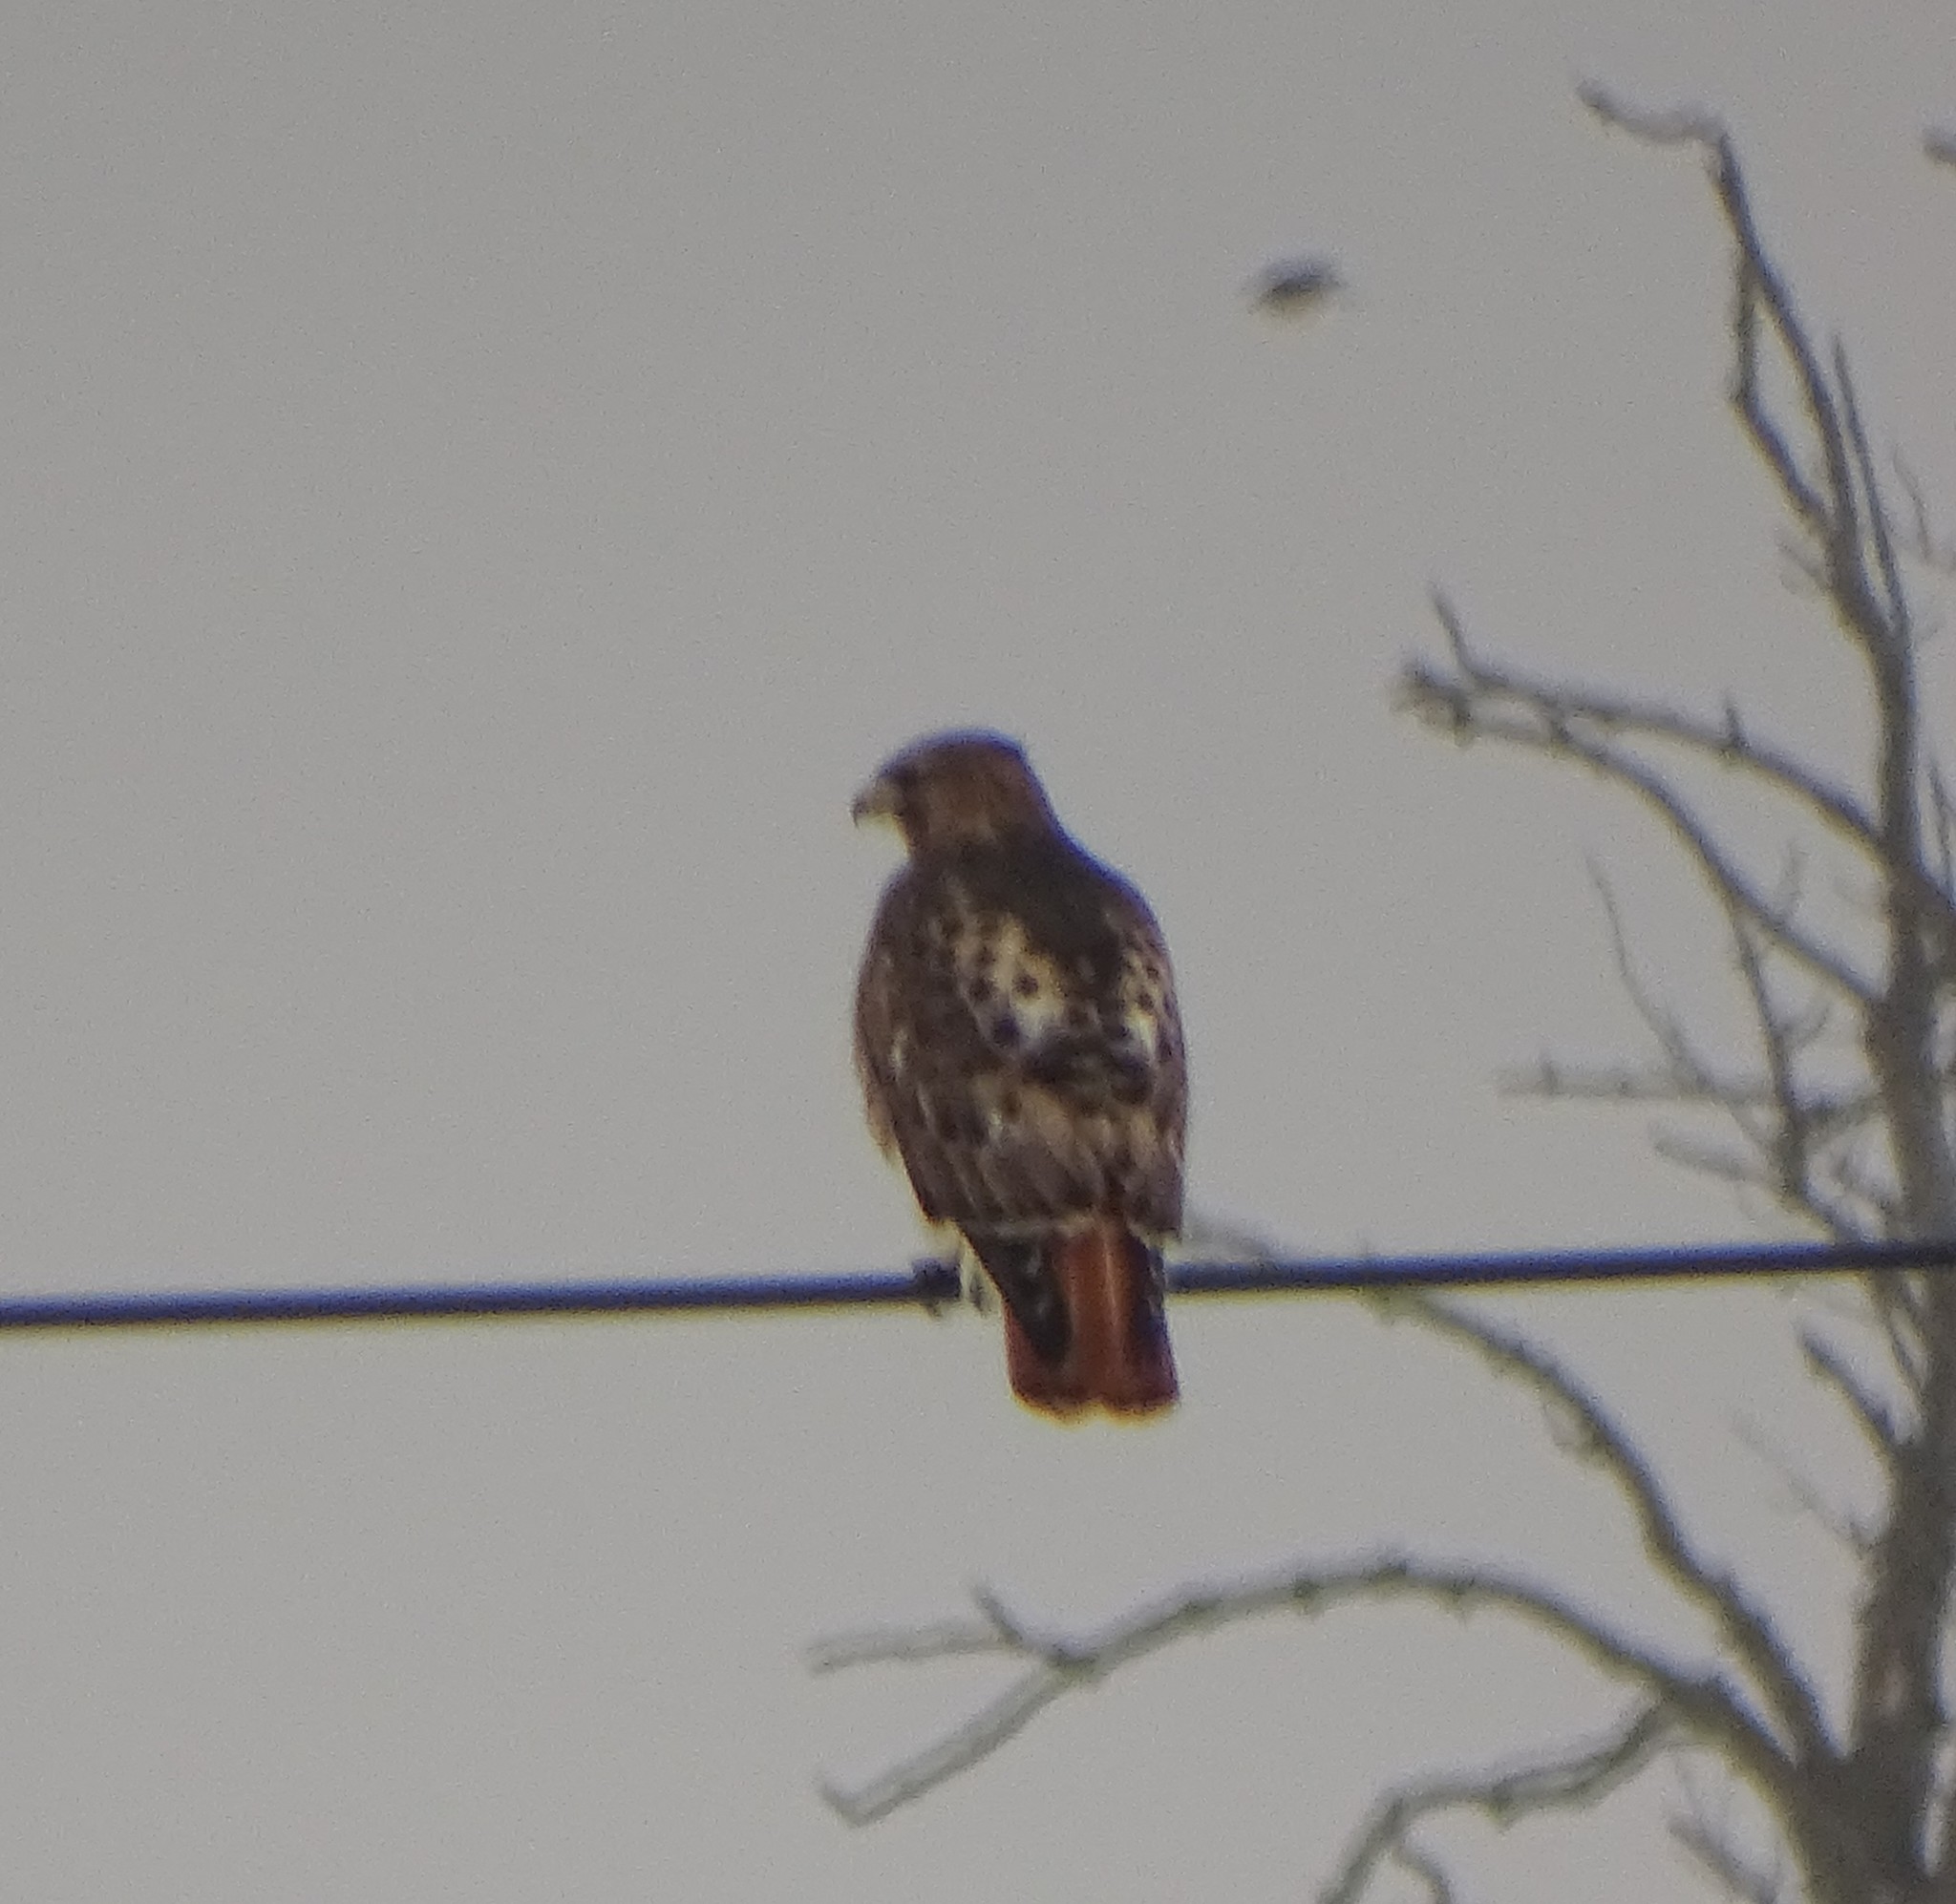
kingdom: Animalia
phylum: Chordata
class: Aves
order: Accipitriformes
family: Accipitridae
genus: Buteo
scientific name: Buteo jamaicensis
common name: Red-tailed hawk
